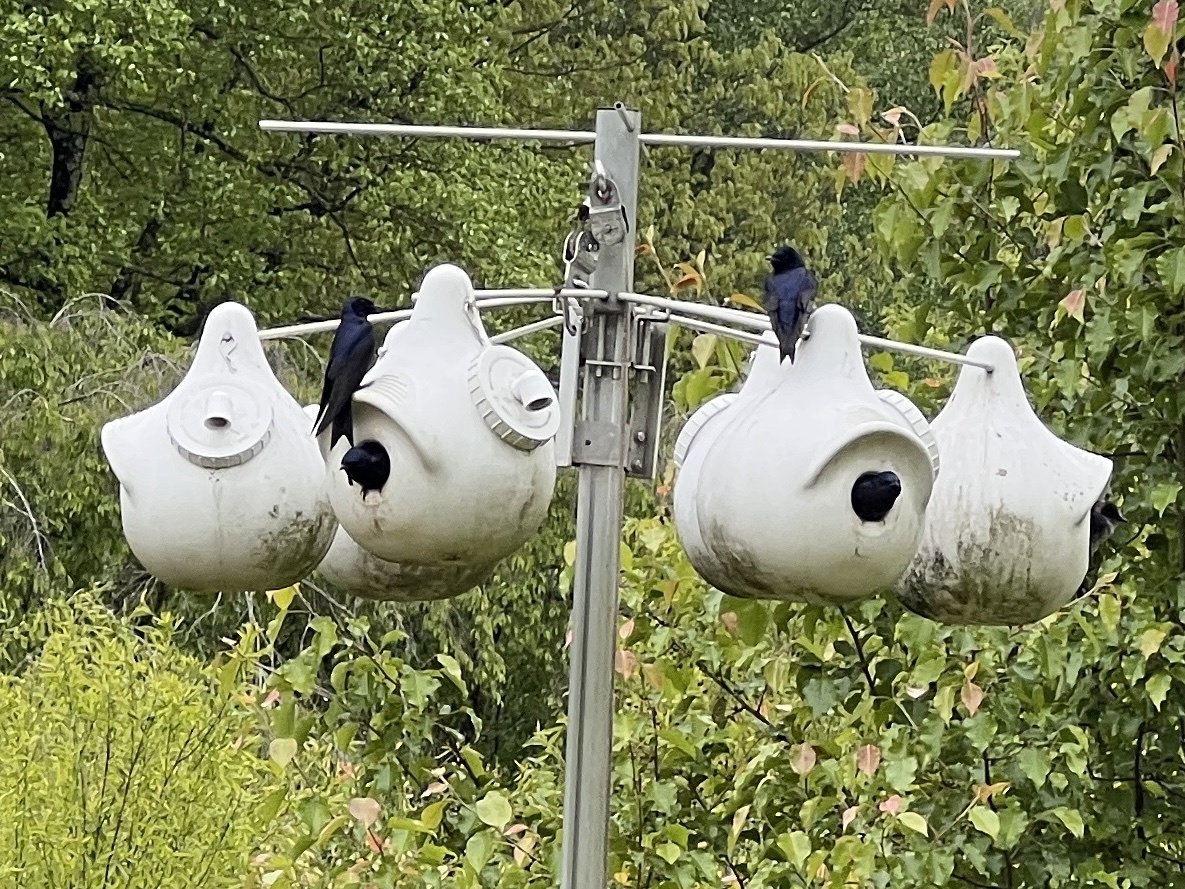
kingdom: Animalia
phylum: Chordata
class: Aves
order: Passeriformes
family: Hirundinidae
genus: Progne
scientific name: Progne subis
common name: Purple martin
